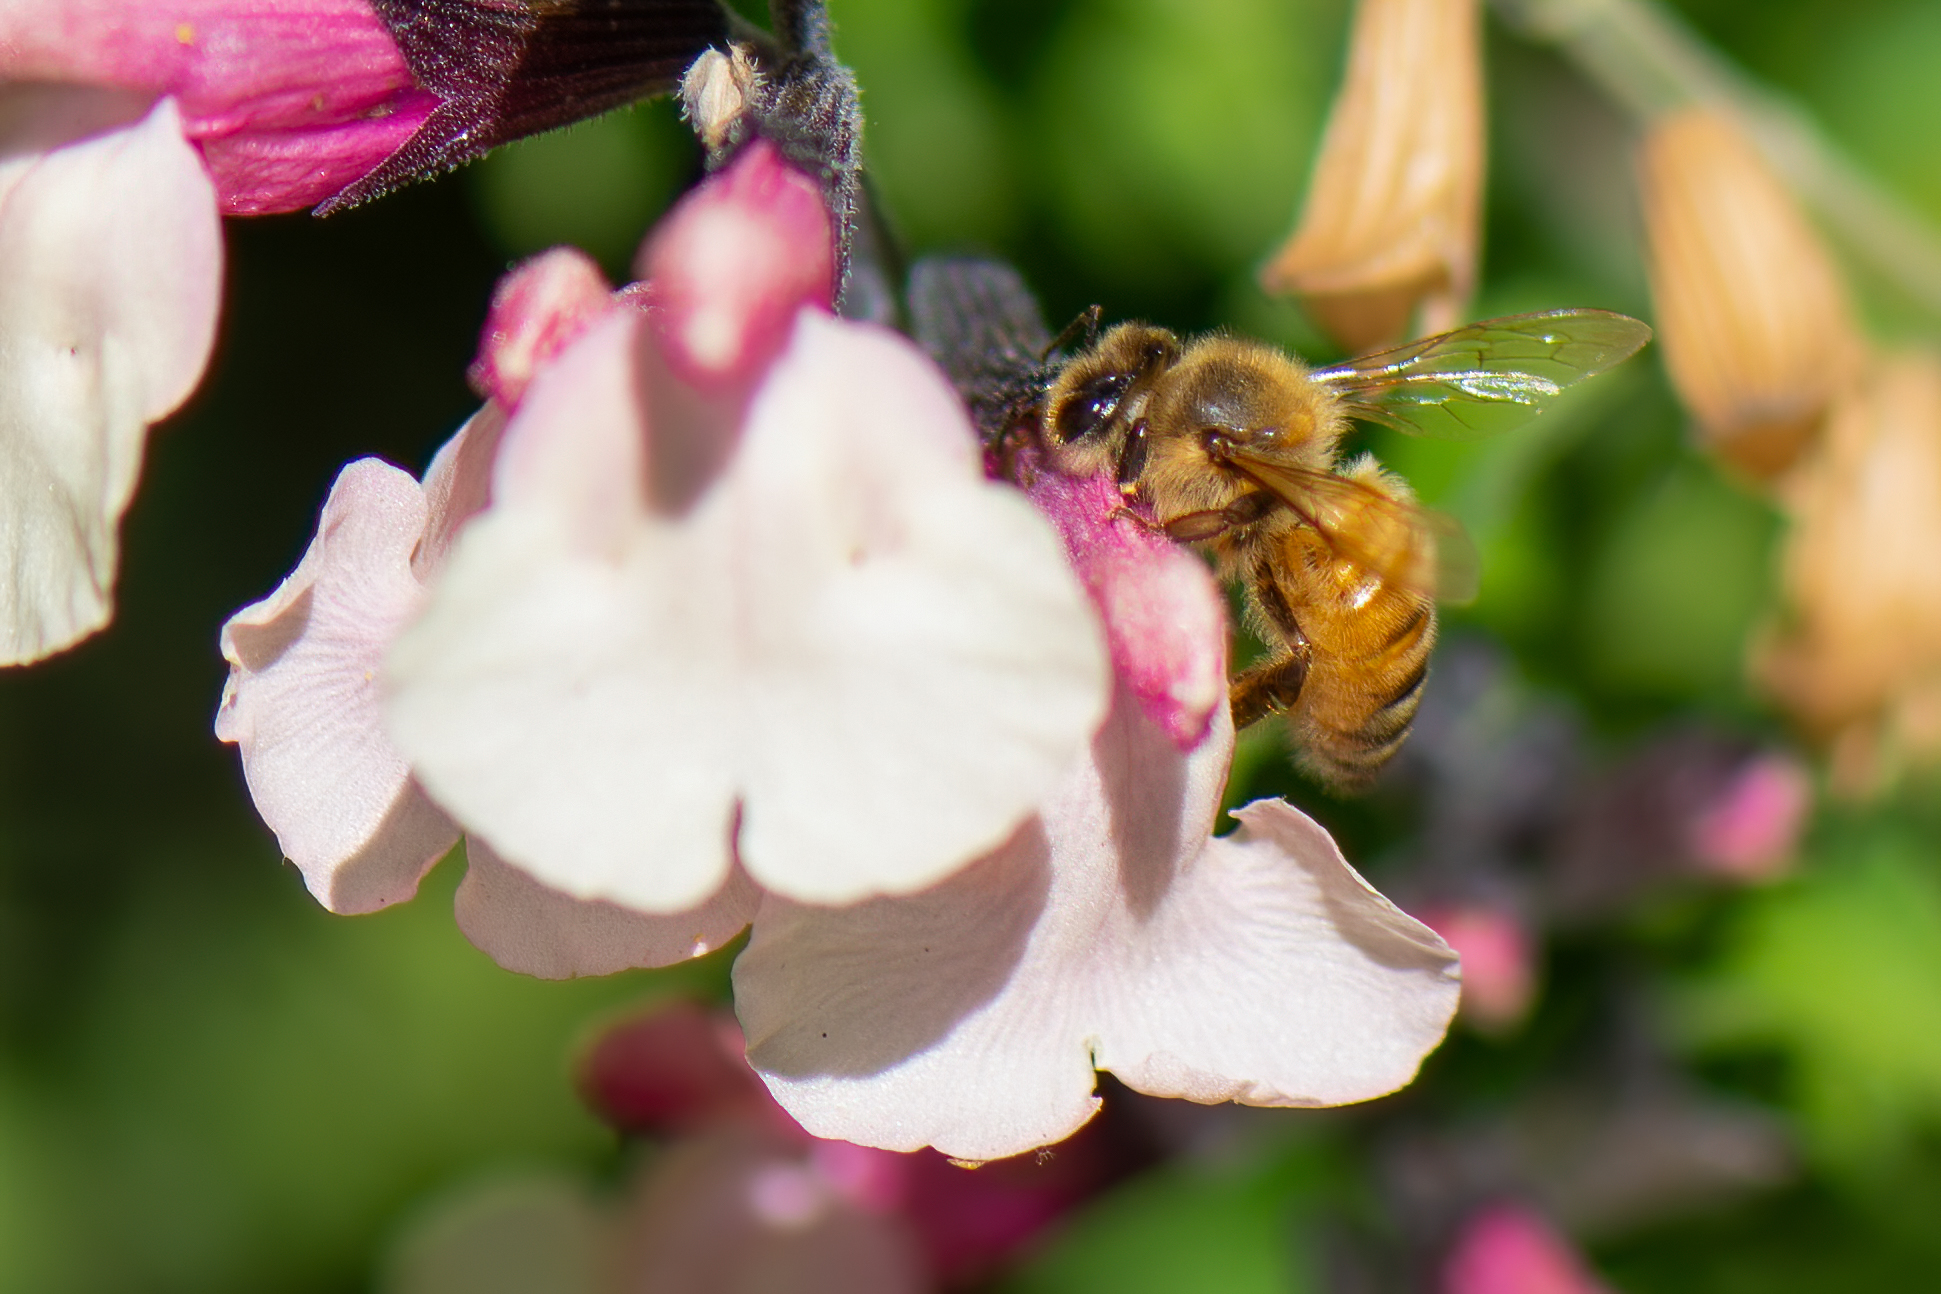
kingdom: Animalia
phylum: Arthropoda
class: Insecta
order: Hymenoptera
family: Apidae
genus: Apis
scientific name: Apis mellifera
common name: Honey bee
